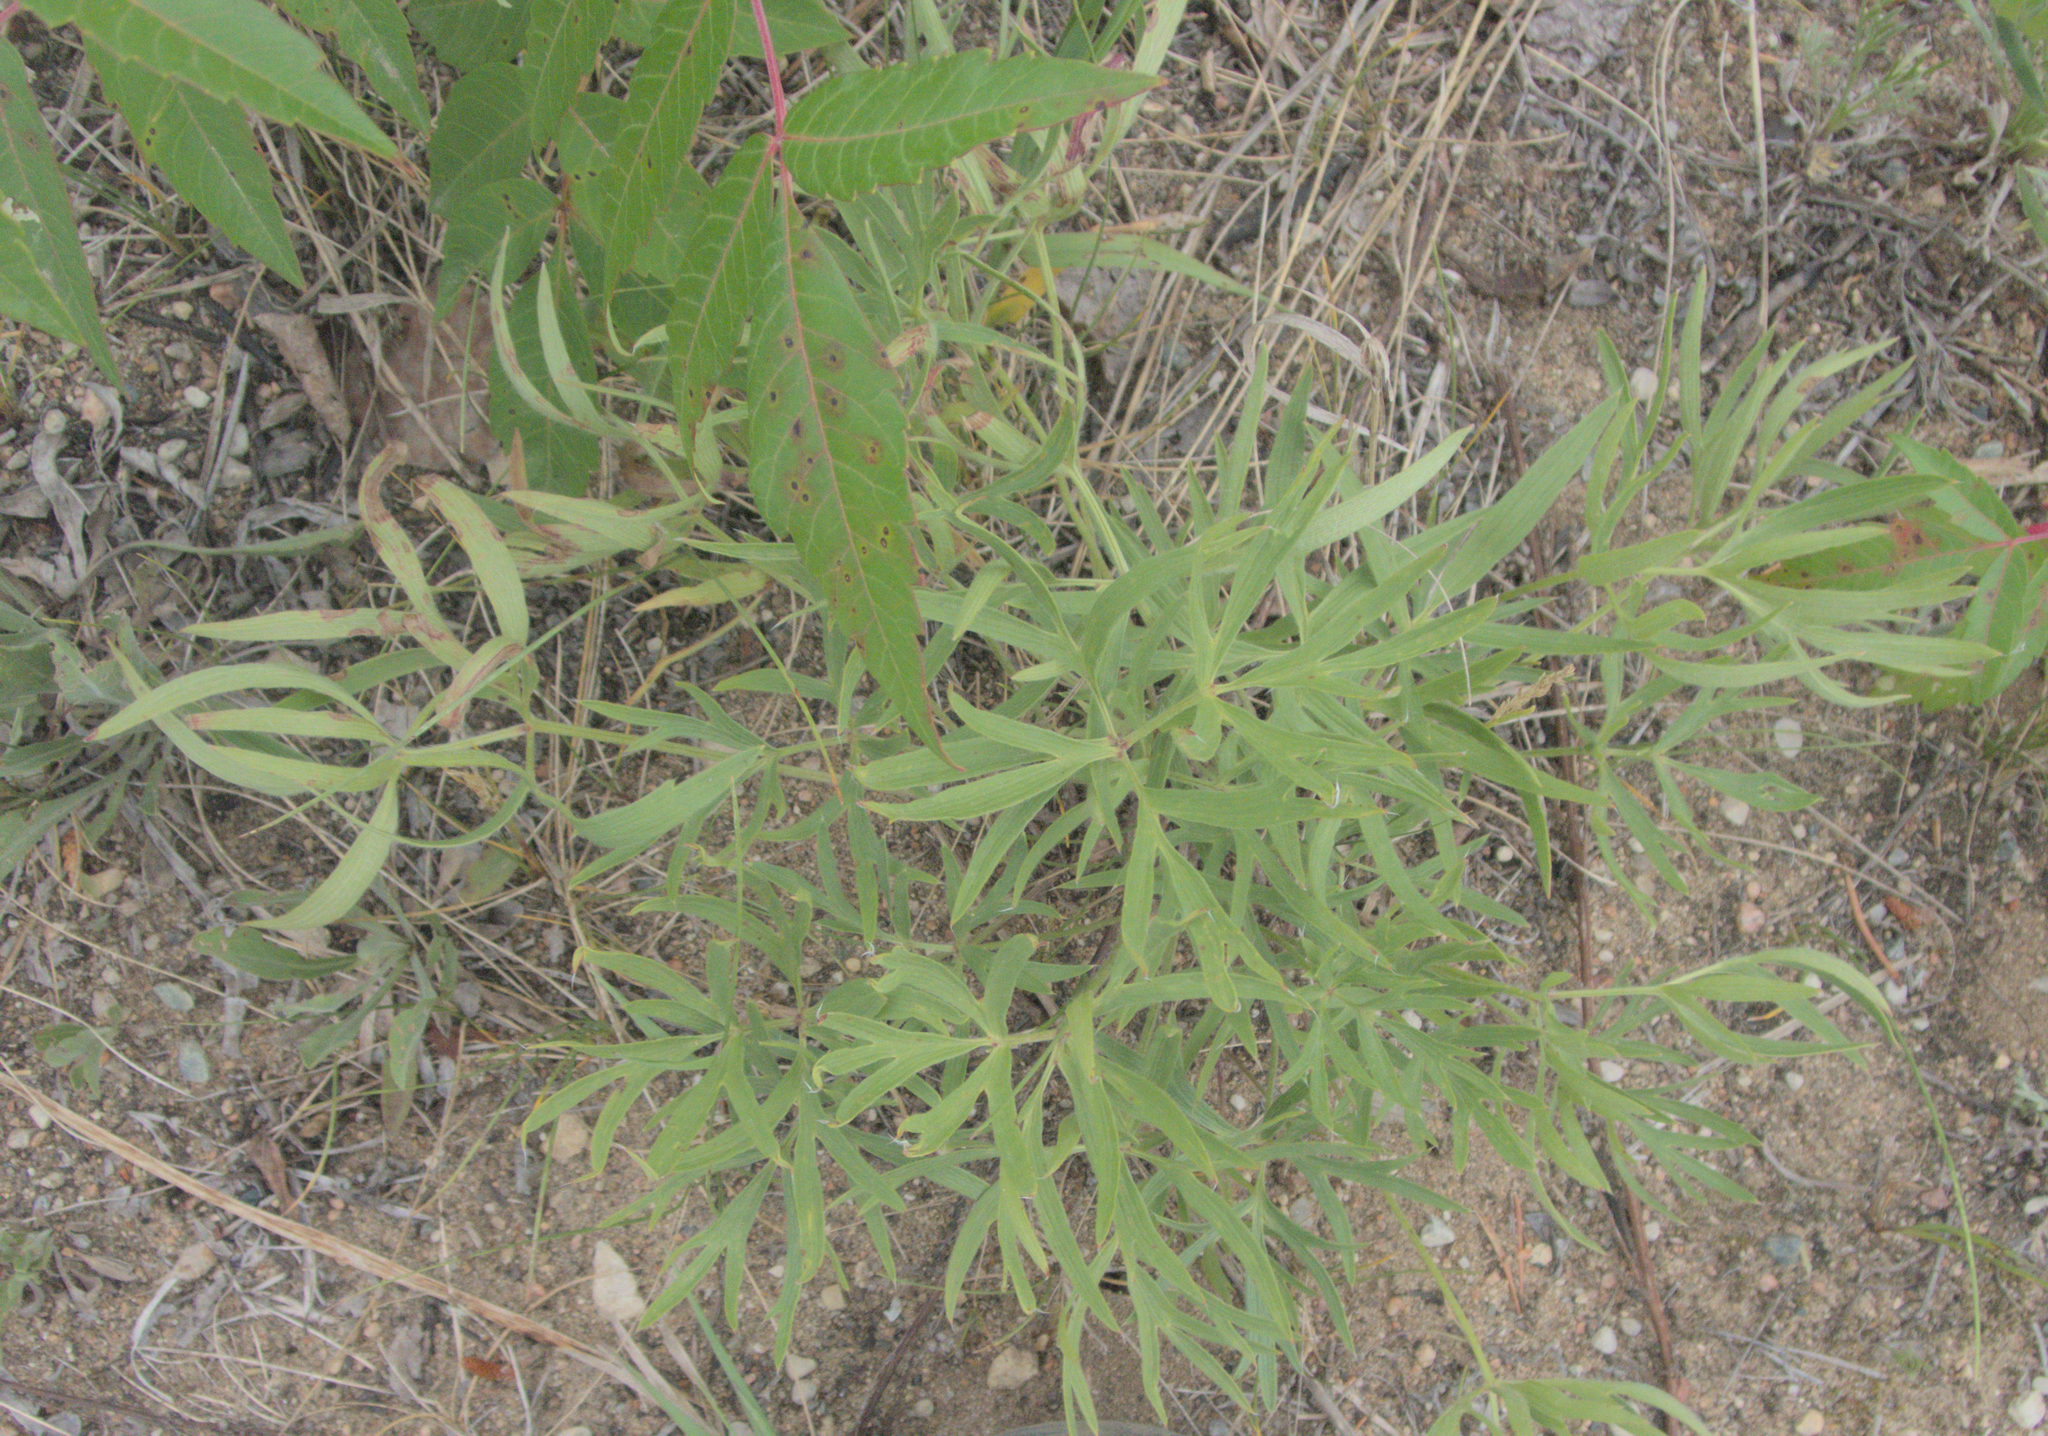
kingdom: Plantae
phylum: Tracheophyta
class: Magnoliopsida
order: Ranunculales
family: Ranunculaceae
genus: Pulsatilla
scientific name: Pulsatilla nuttalliana
